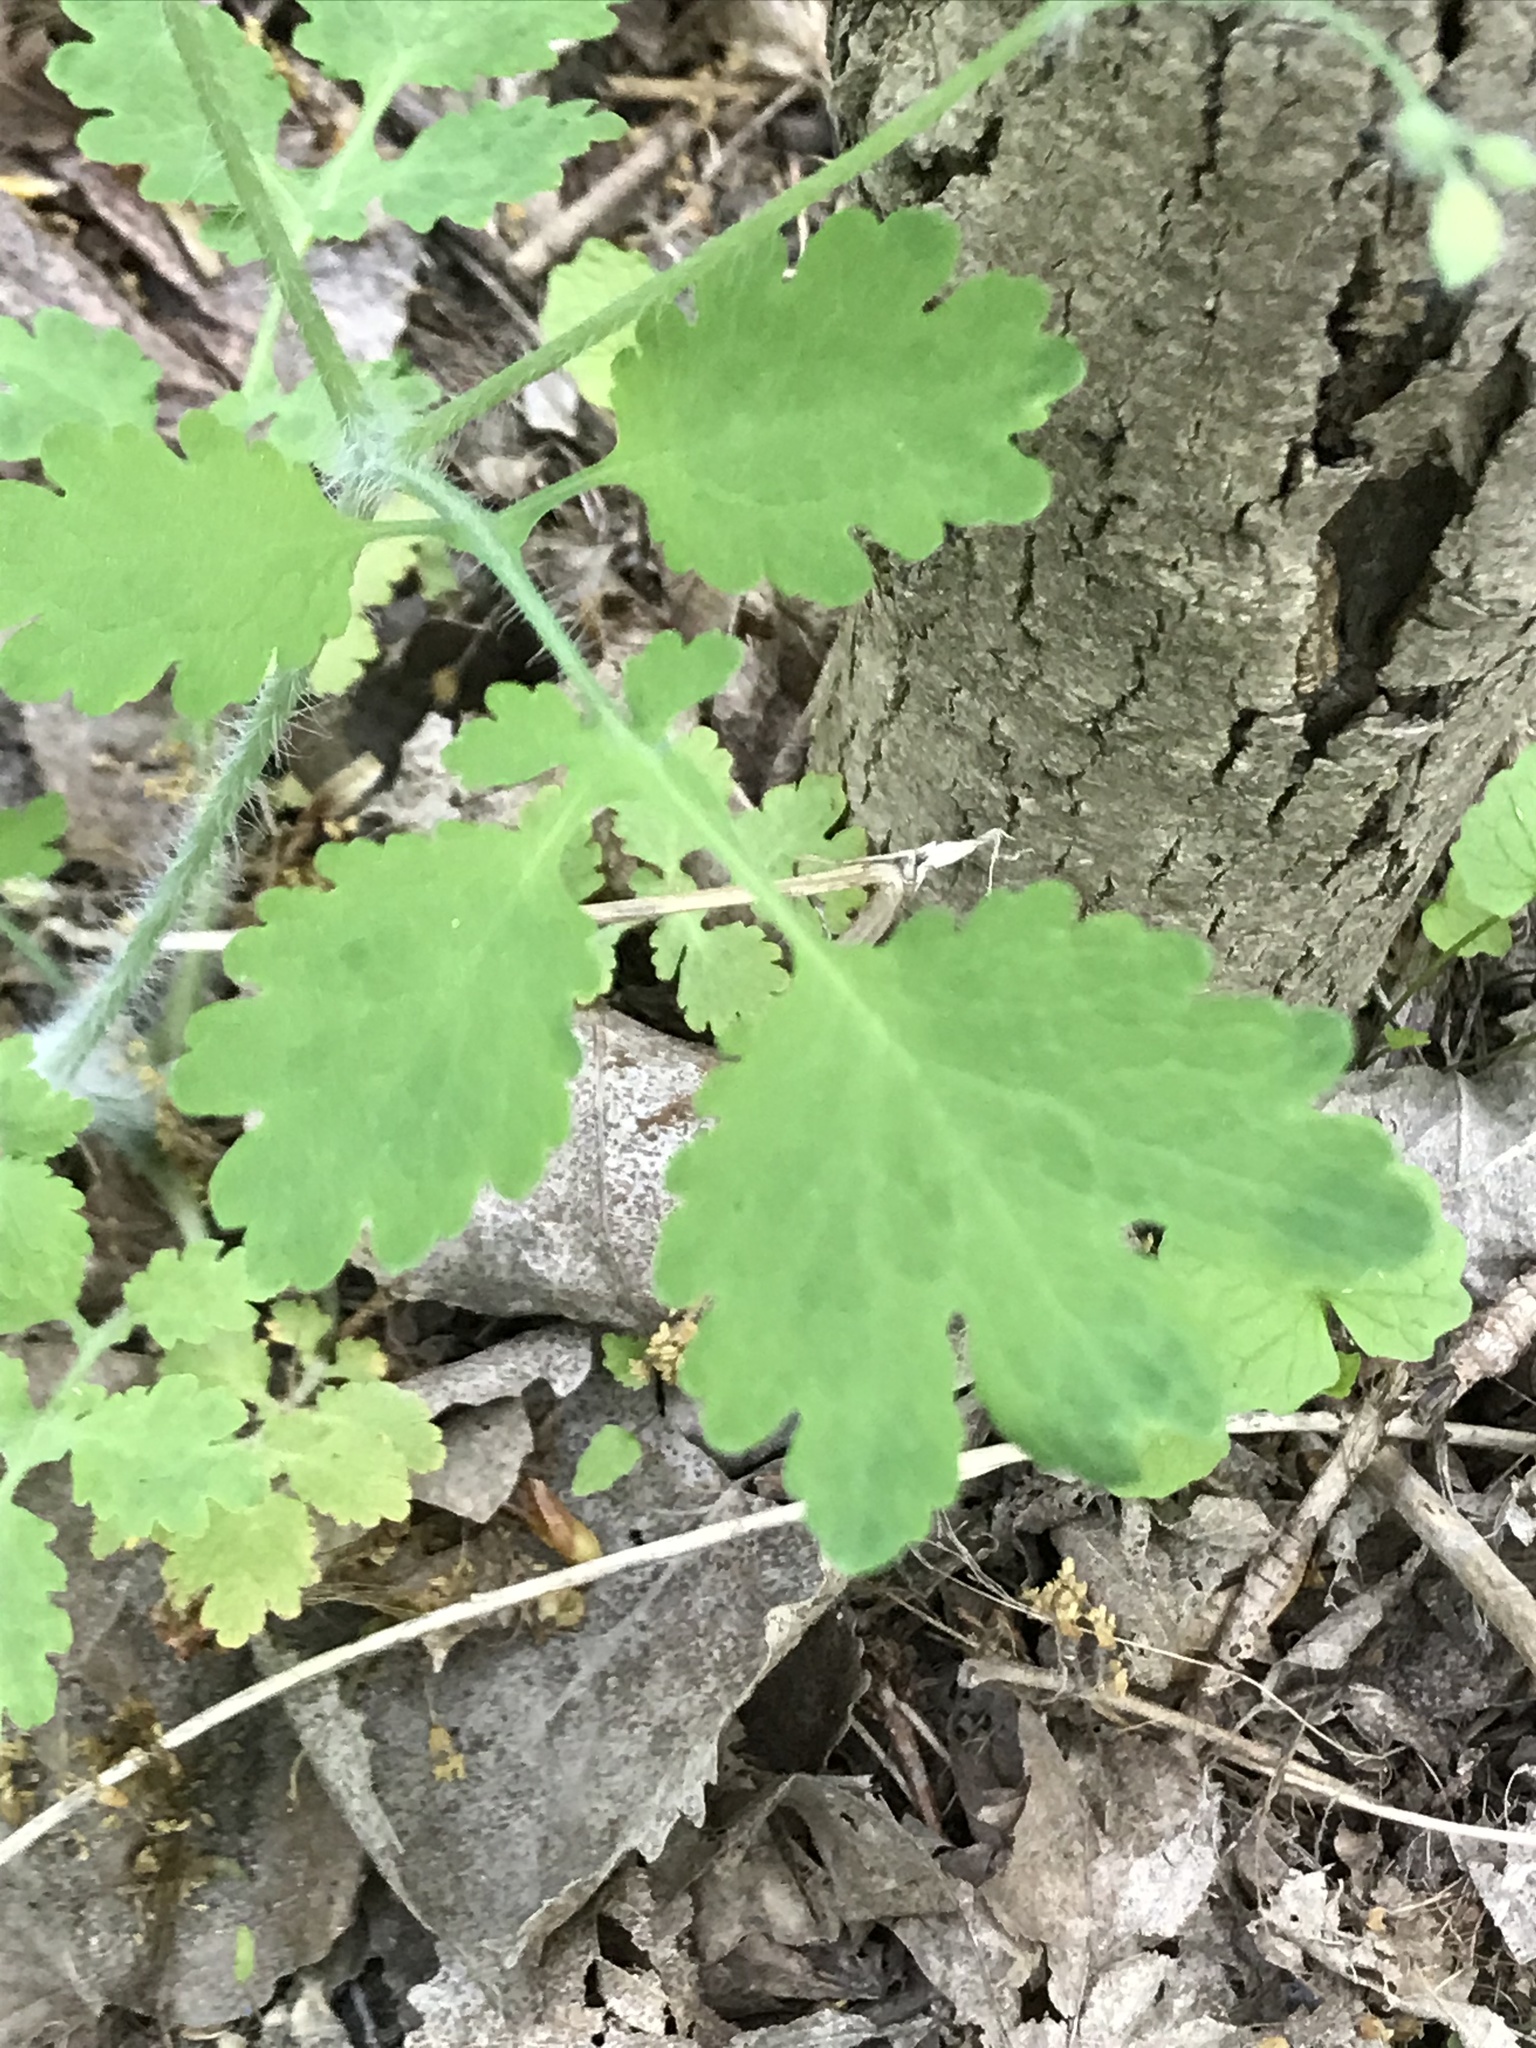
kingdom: Plantae
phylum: Tracheophyta
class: Magnoliopsida
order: Ranunculales
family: Papaveraceae
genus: Chelidonium
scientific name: Chelidonium majus
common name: Greater celandine
